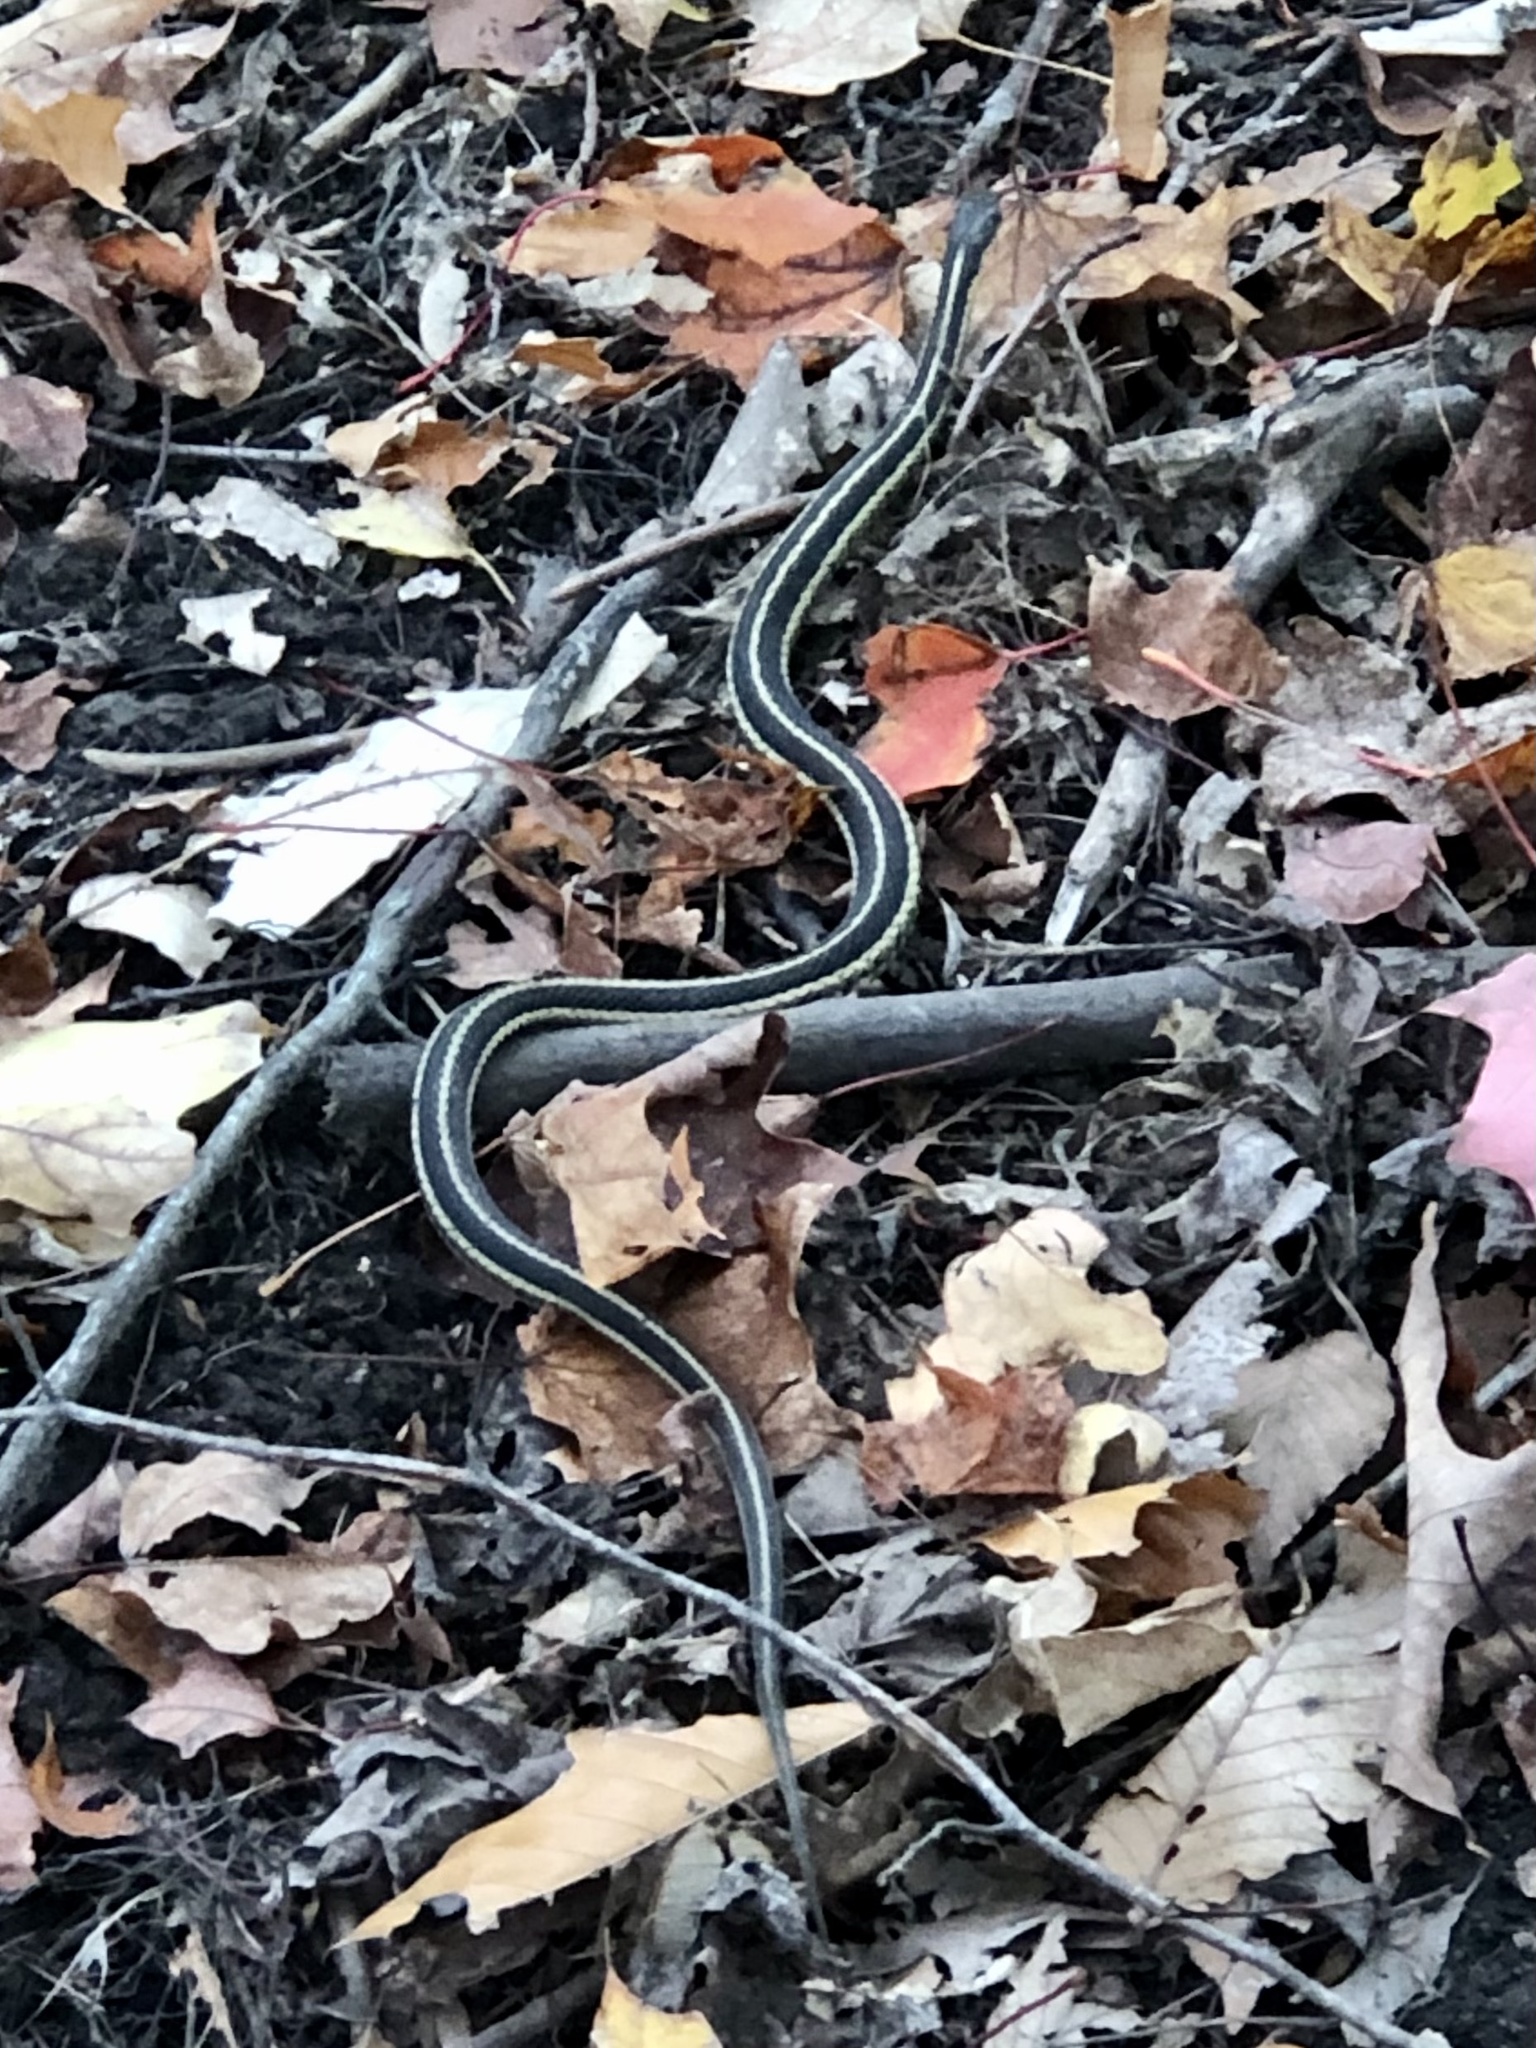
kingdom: Animalia
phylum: Chordata
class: Squamata
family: Colubridae
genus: Thamnophis
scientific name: Thamnophis sirtalis
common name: Common garter snake
